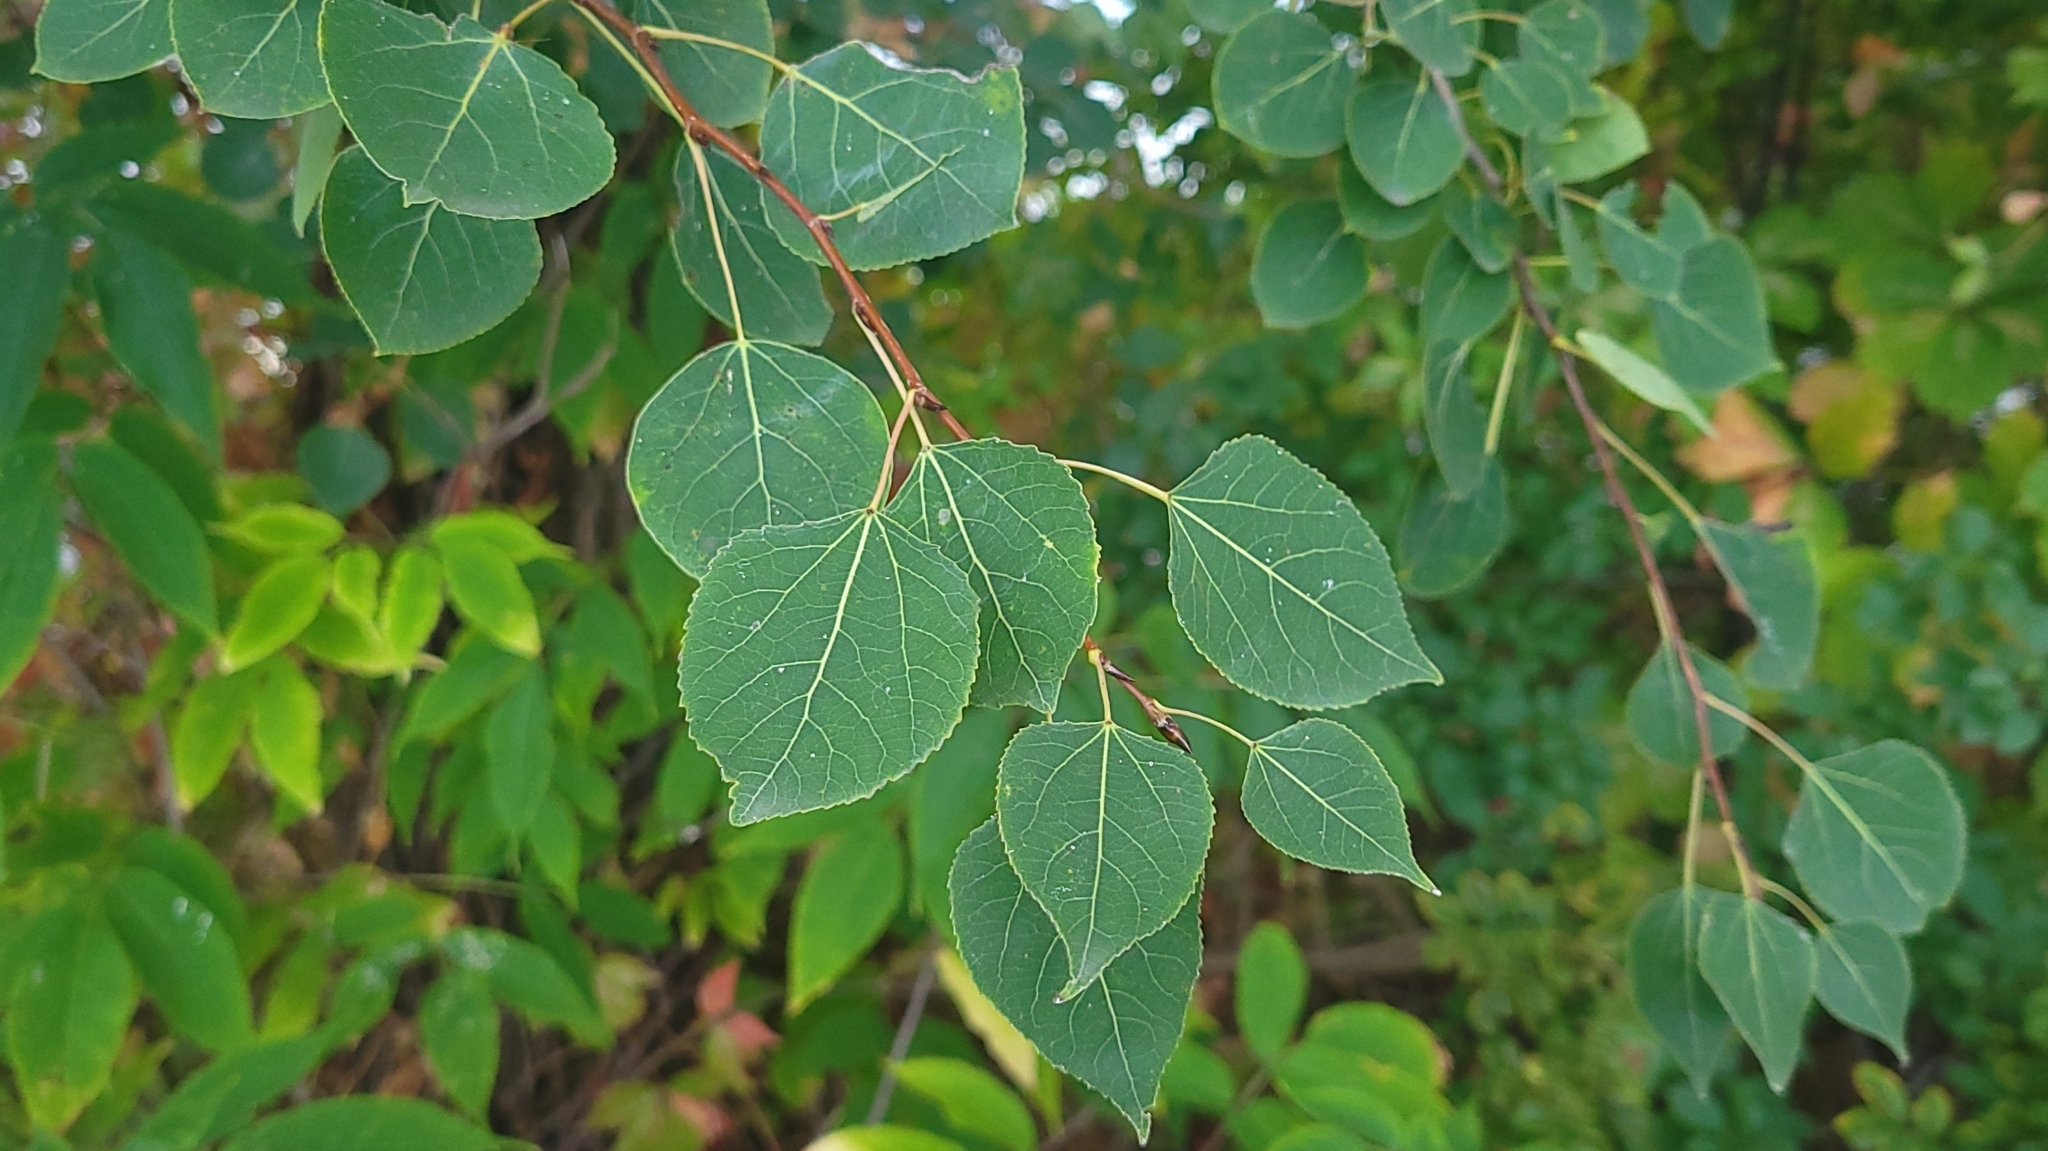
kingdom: Plantae
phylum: Tracheophyta
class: Magnoliopsida
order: Malpighiales
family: Salicaceae
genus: Populus
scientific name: Populus tremuloides
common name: Quaking aspen
